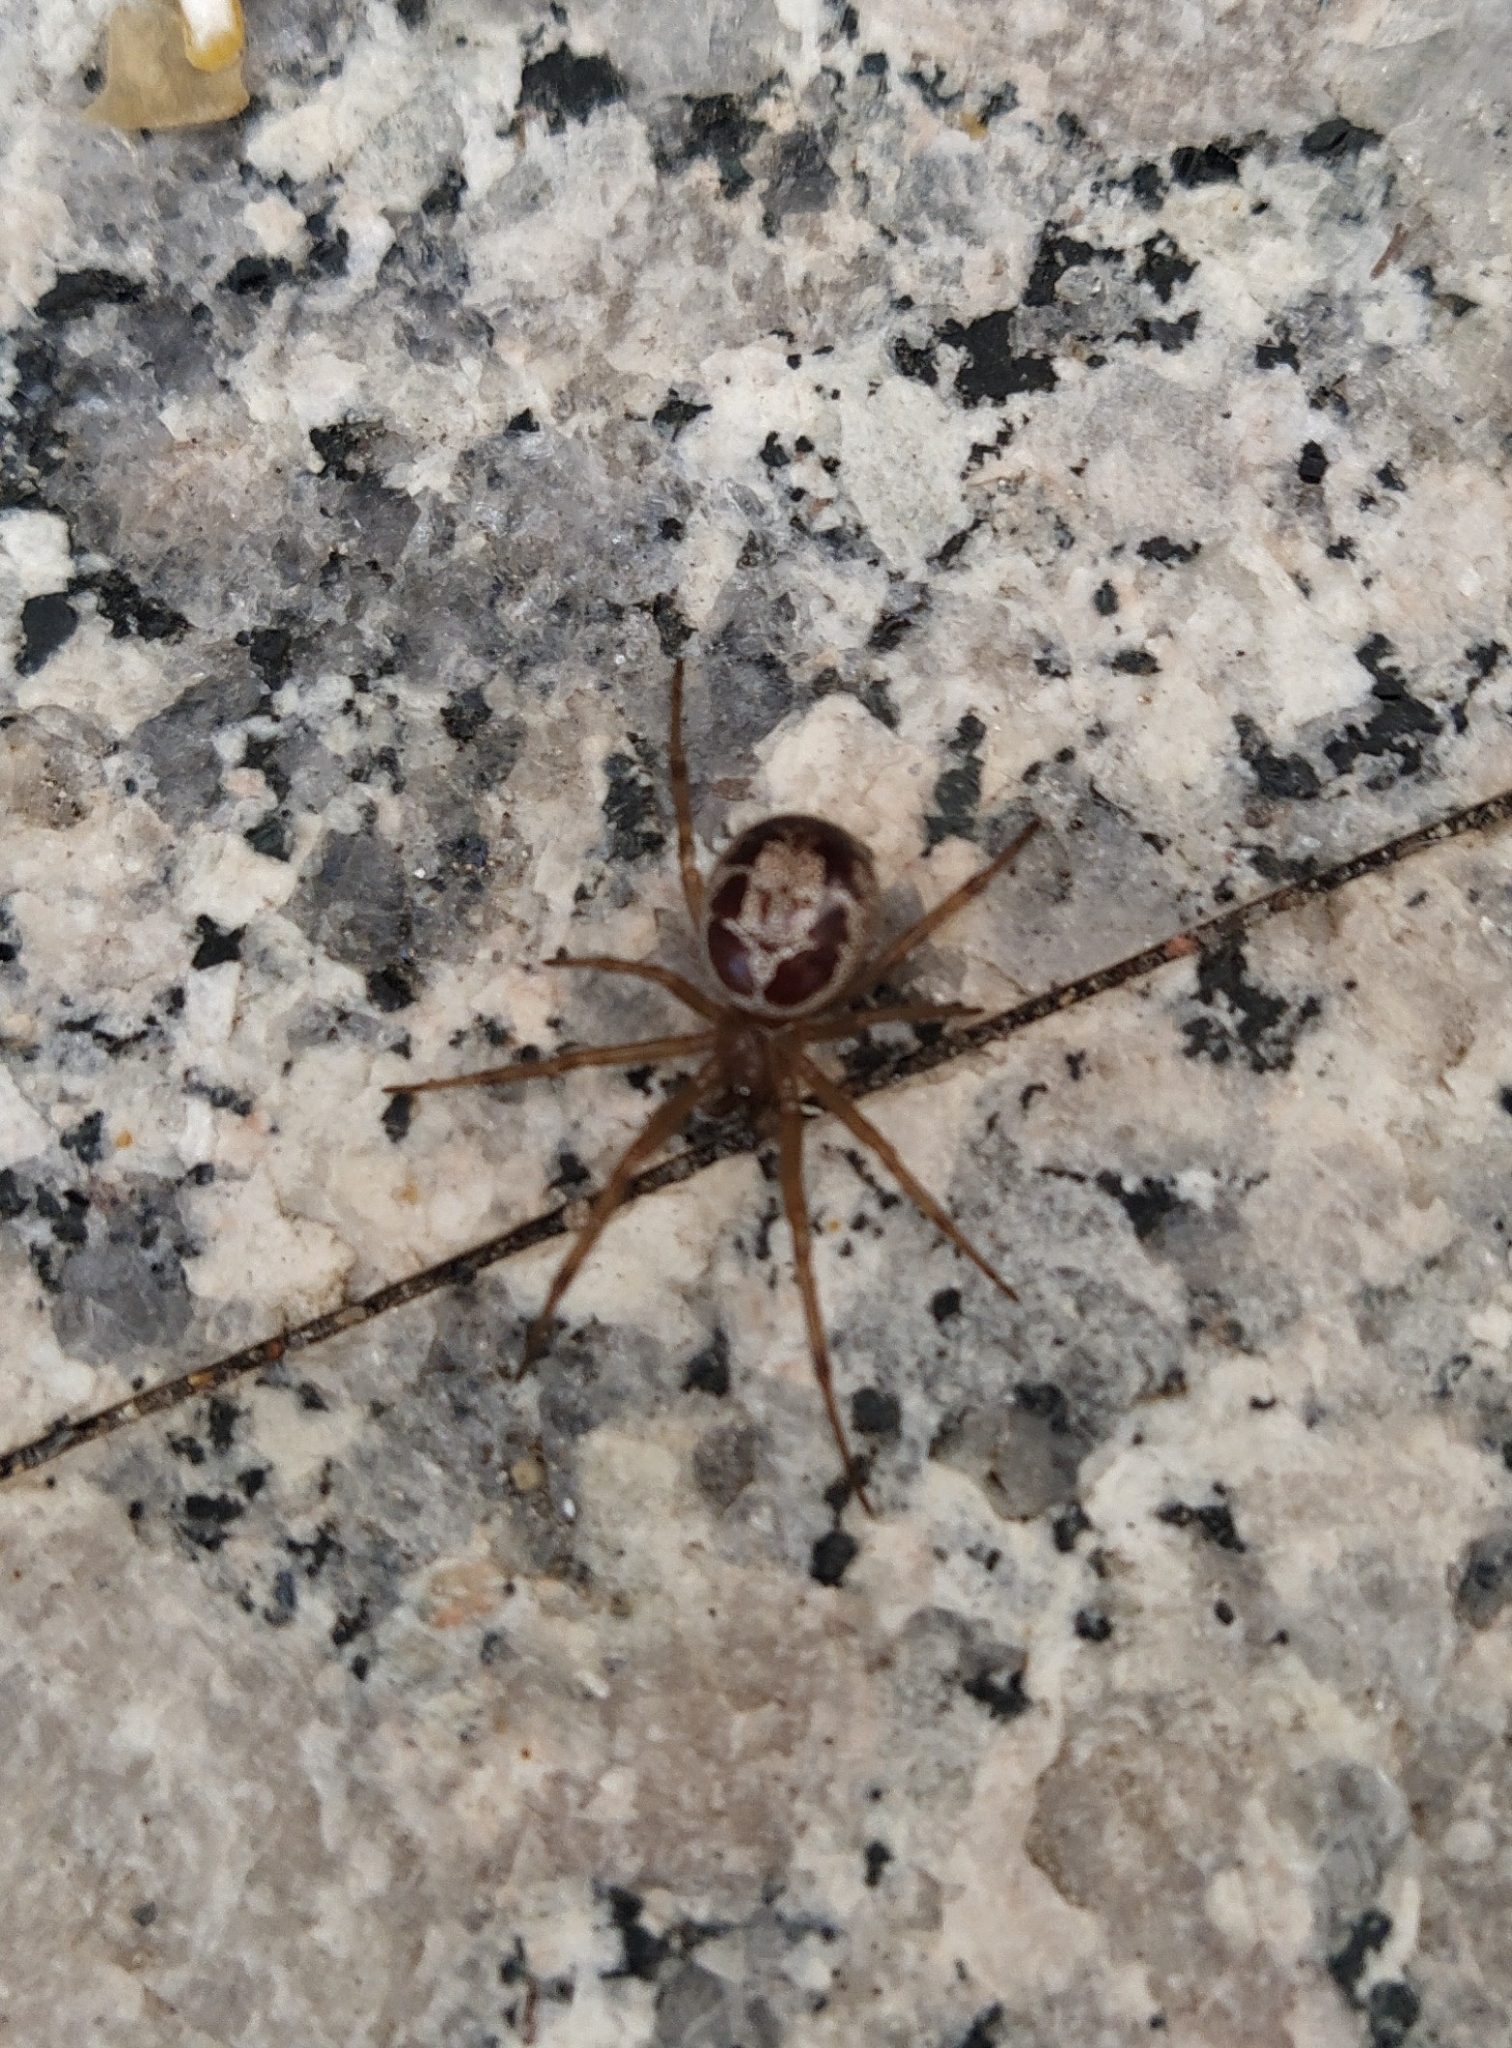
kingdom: Animalia
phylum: Arthropoda
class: Arachnida
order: Araneae
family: Theridiidae
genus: Steatoda
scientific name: Steatoda nobilis
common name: Cobweb weaver
